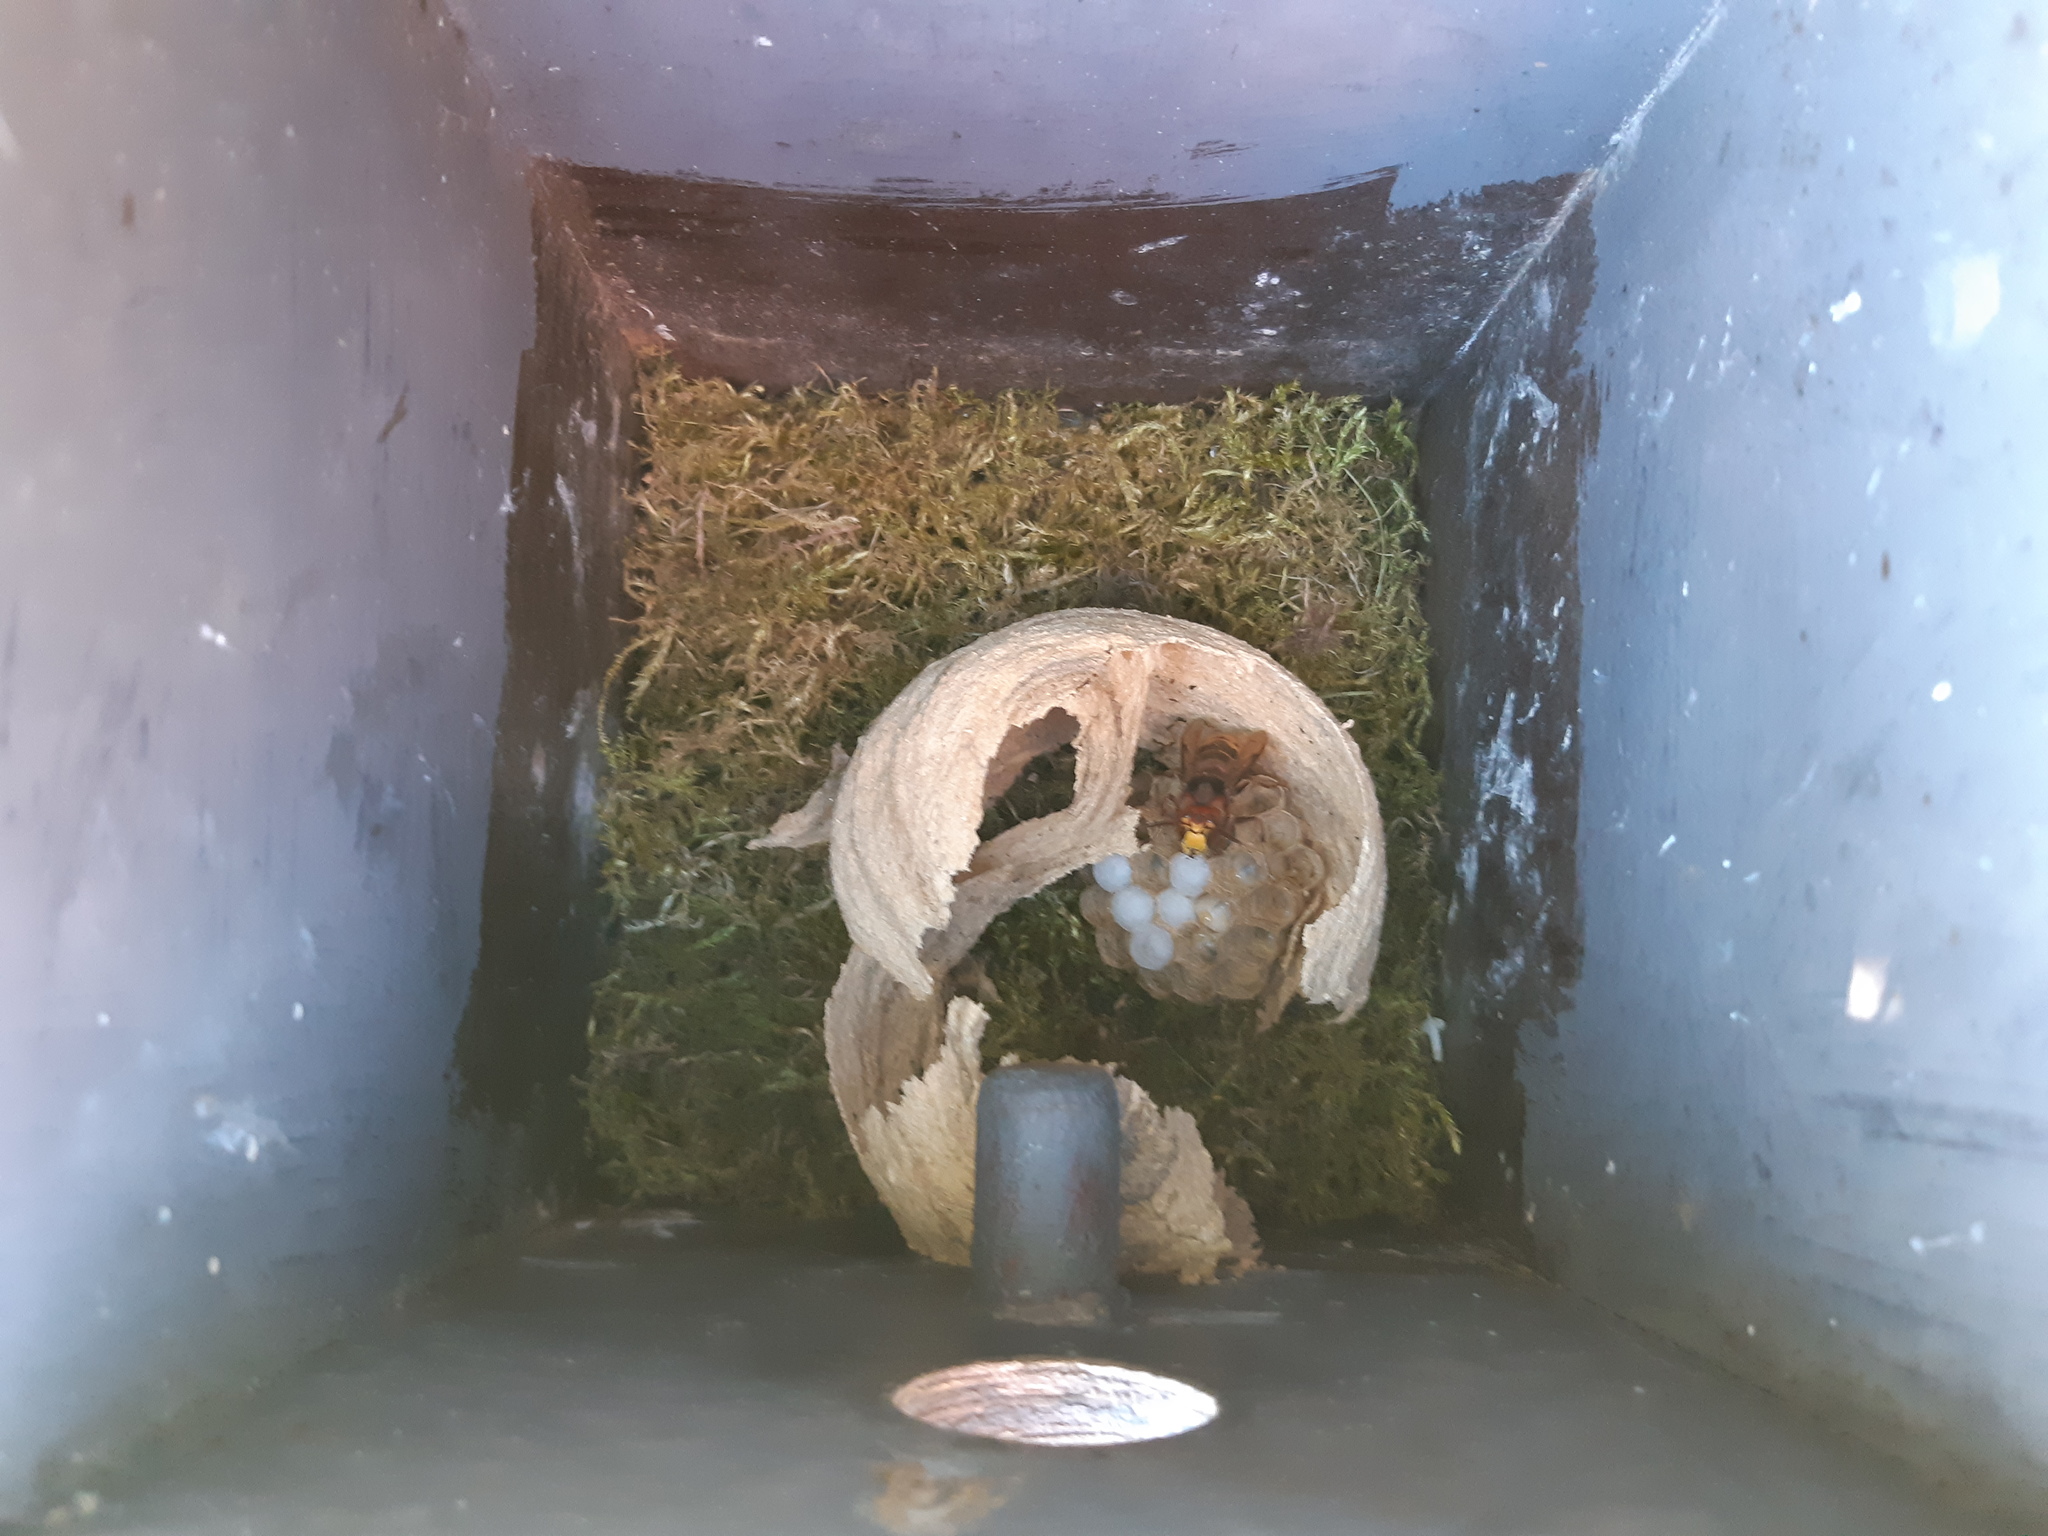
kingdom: Animalia
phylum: Arthropoda
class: Insecta
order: Hymenoptera
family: Vespidae
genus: Vespa
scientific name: Vespa crabro
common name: Hornet
